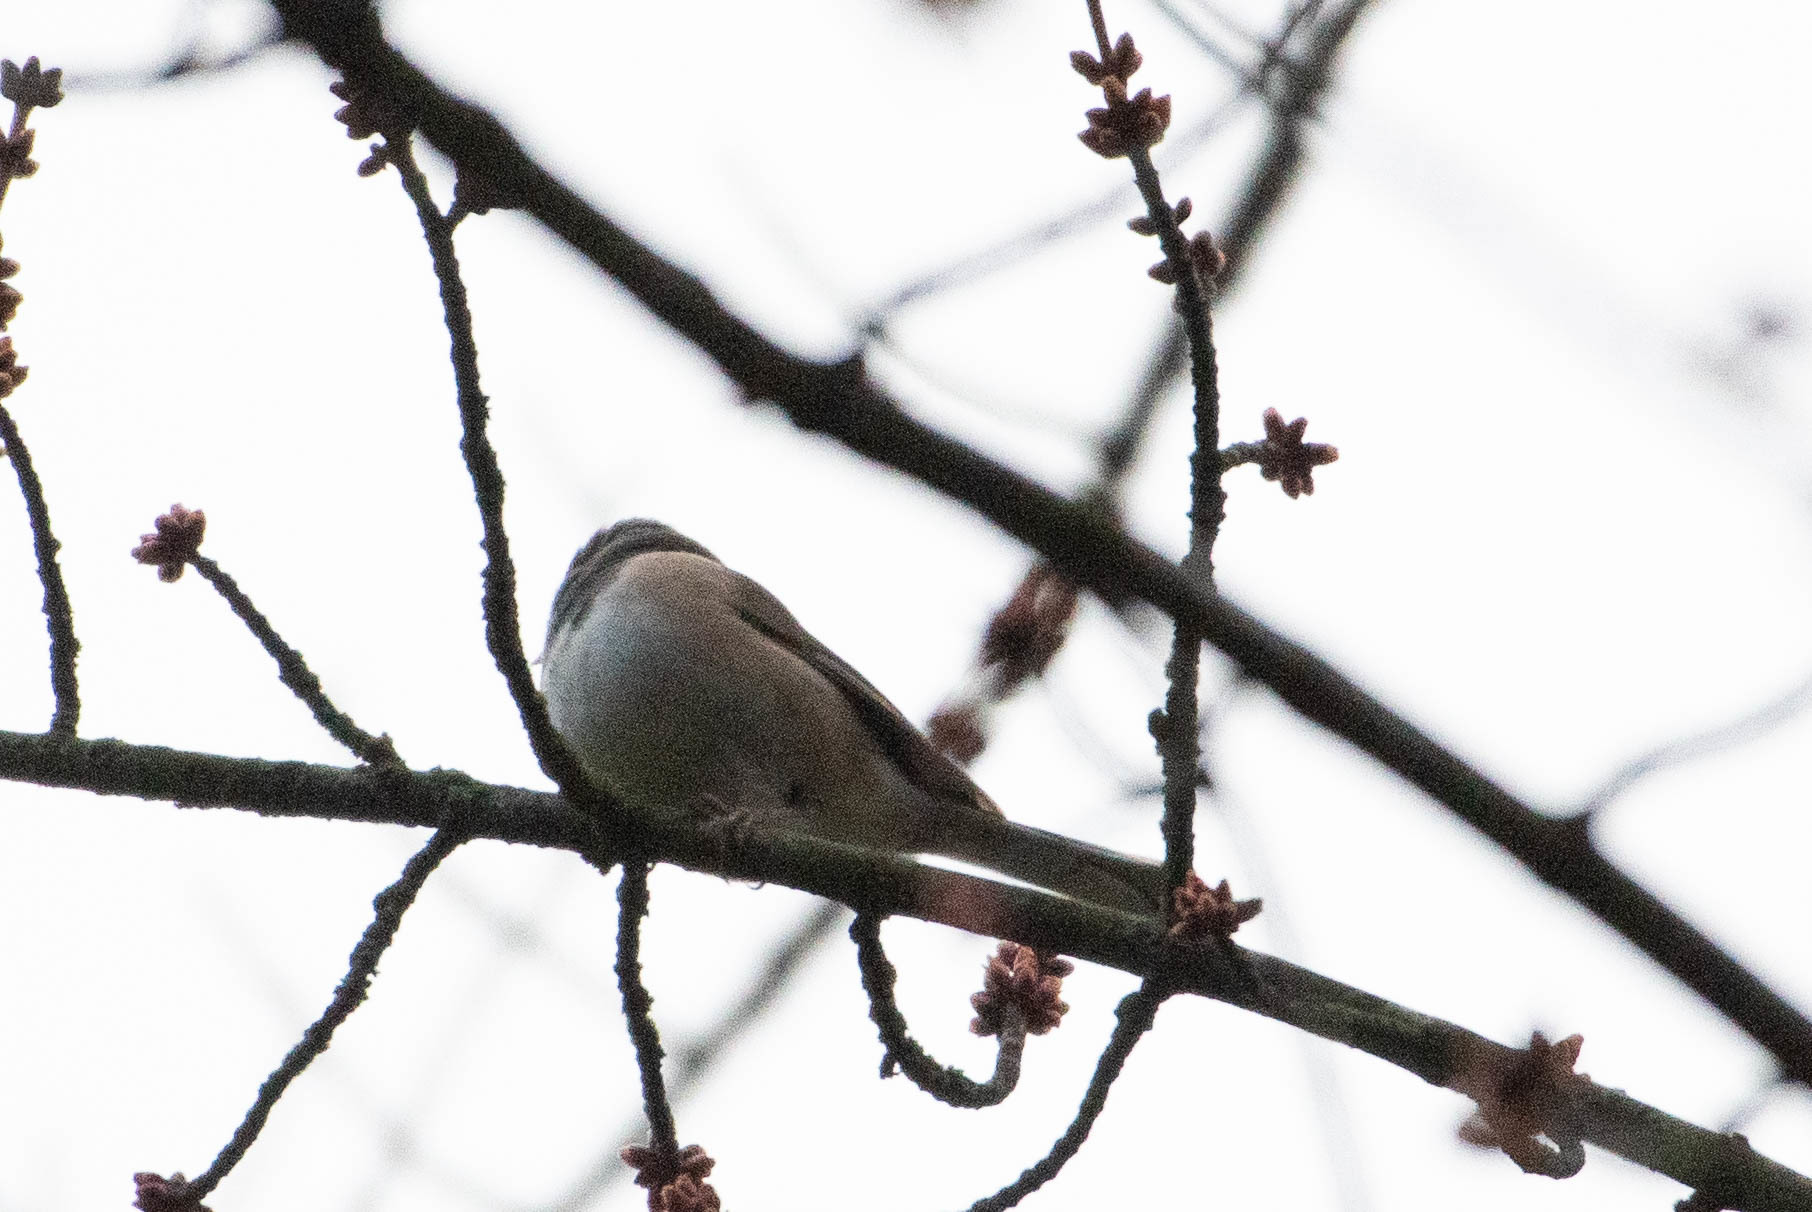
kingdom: Animalia
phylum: Chordata
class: Aves
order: Passeriformes
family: Passerellidae
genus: Junco
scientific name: Junco hyemalis
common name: Dark-eyed junco
